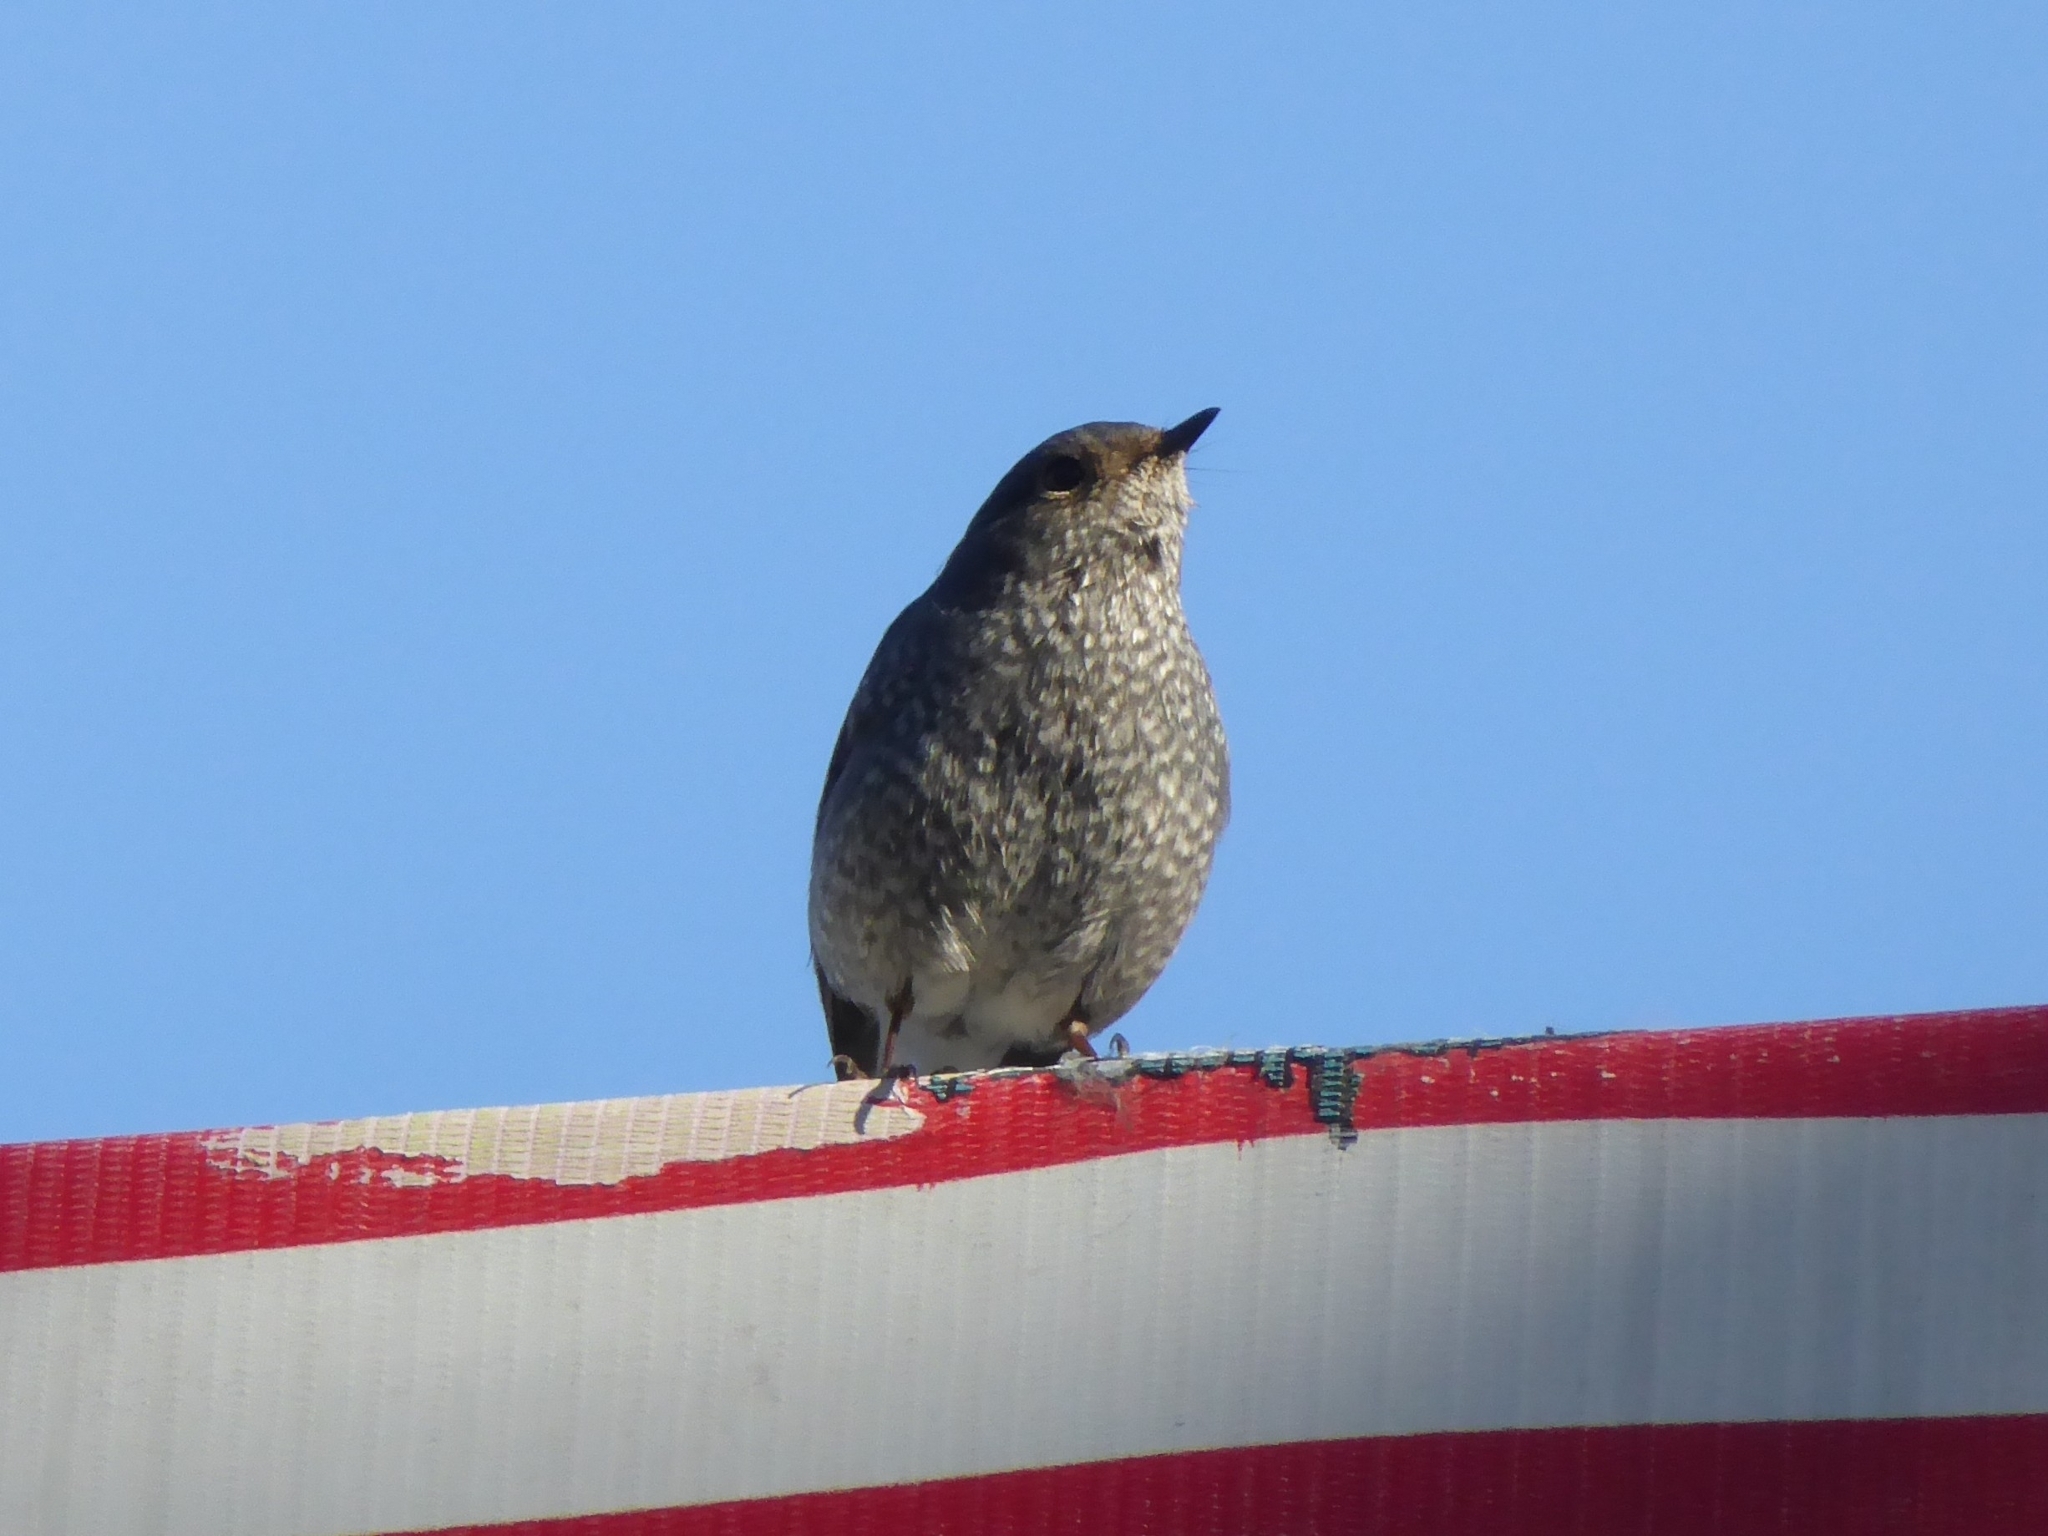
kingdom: Animalia
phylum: Chordata
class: Aves
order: Passeriformes
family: Muscicapidae
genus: Phoenicurus
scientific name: Phoenicurus fuliginosus
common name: Plumbeous water redstart
